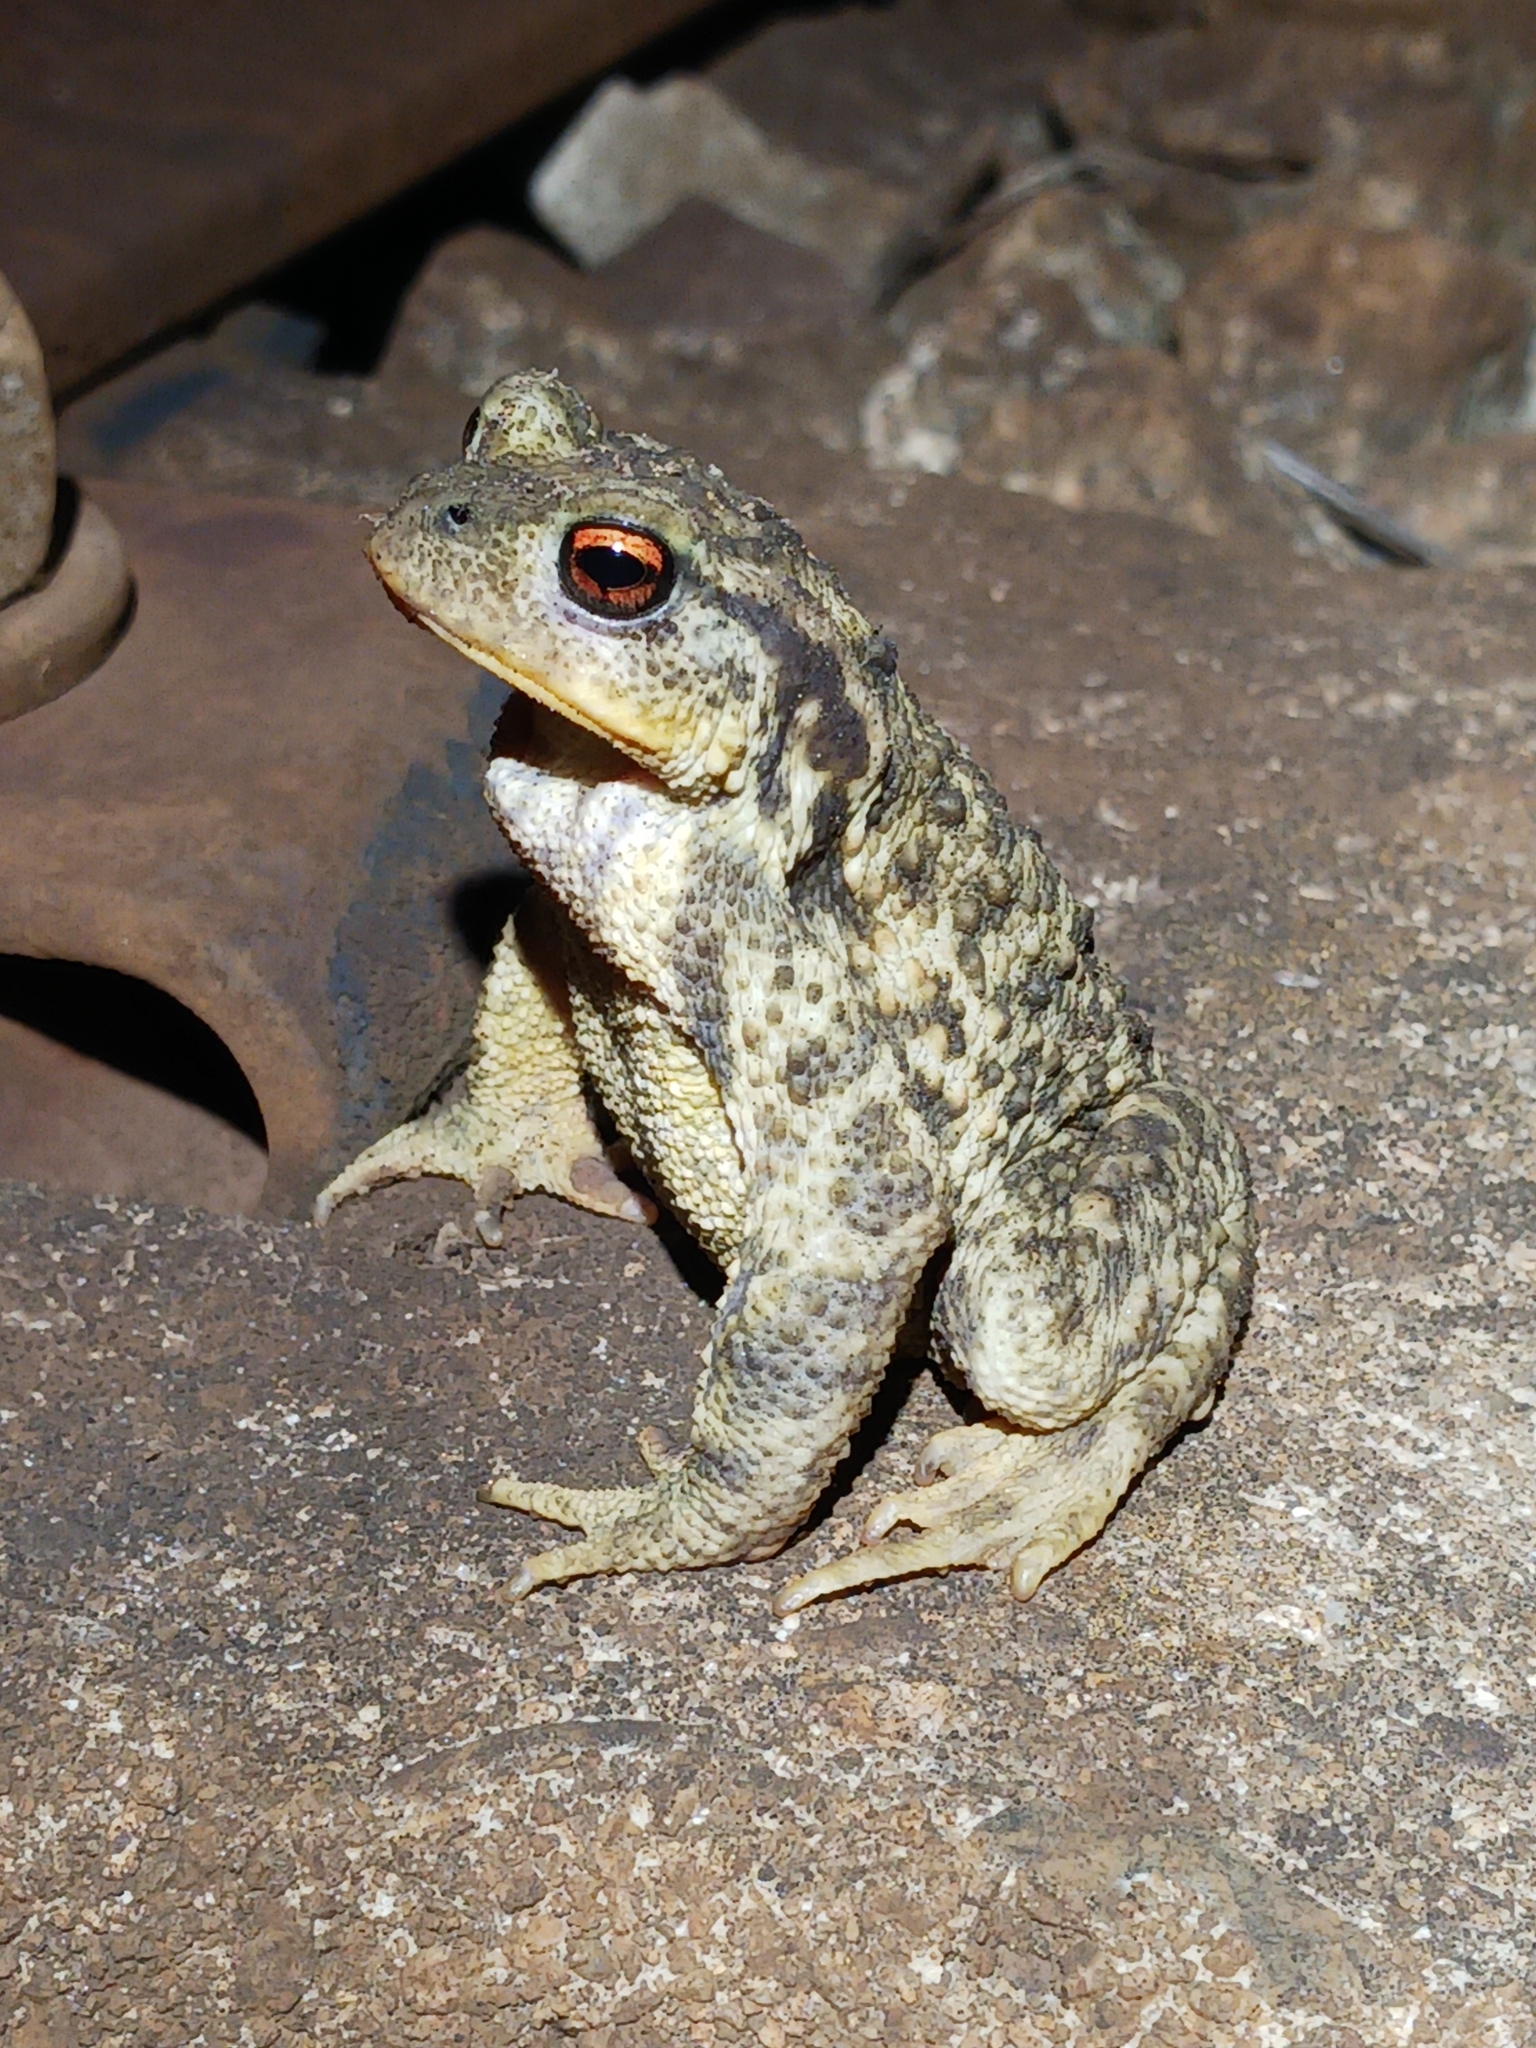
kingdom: Animalia
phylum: Chordata
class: Amphibia
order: Anura
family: Bufonidae
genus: Bufo
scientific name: Bufo spinosus
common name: Western common toad
